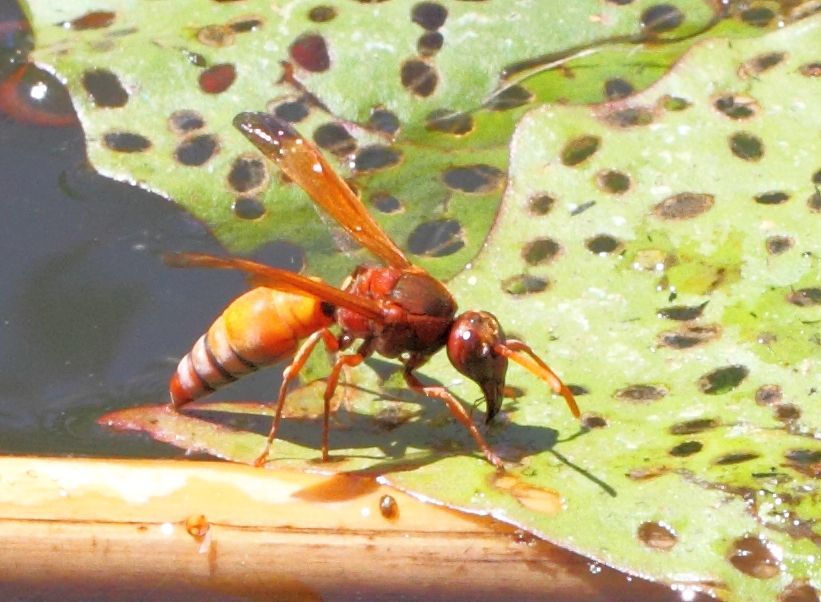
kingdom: Animalia
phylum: Arthropoda
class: Insecta
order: Hymenoptera
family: Eumenidae
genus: Antodynerus
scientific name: Antodynerus radialis
